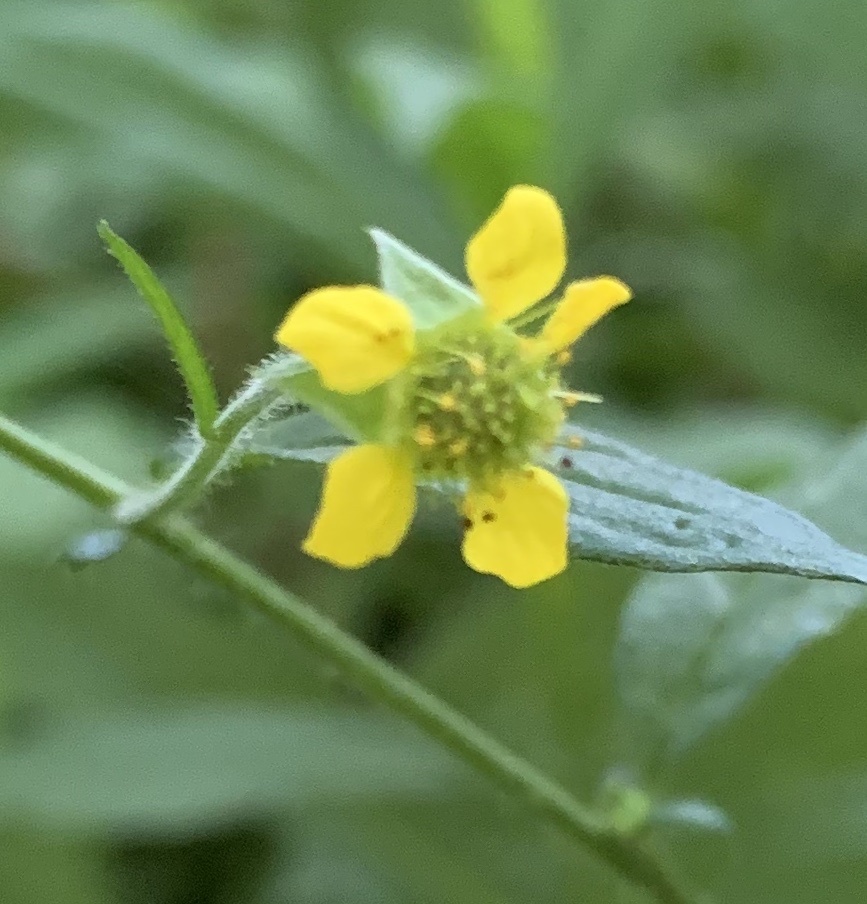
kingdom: Plantae
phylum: Tracheophyta
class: Magnoliopsida
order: Rosales
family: Rosaceae
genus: Geum
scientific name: Geum urbanum
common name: Wood avens
